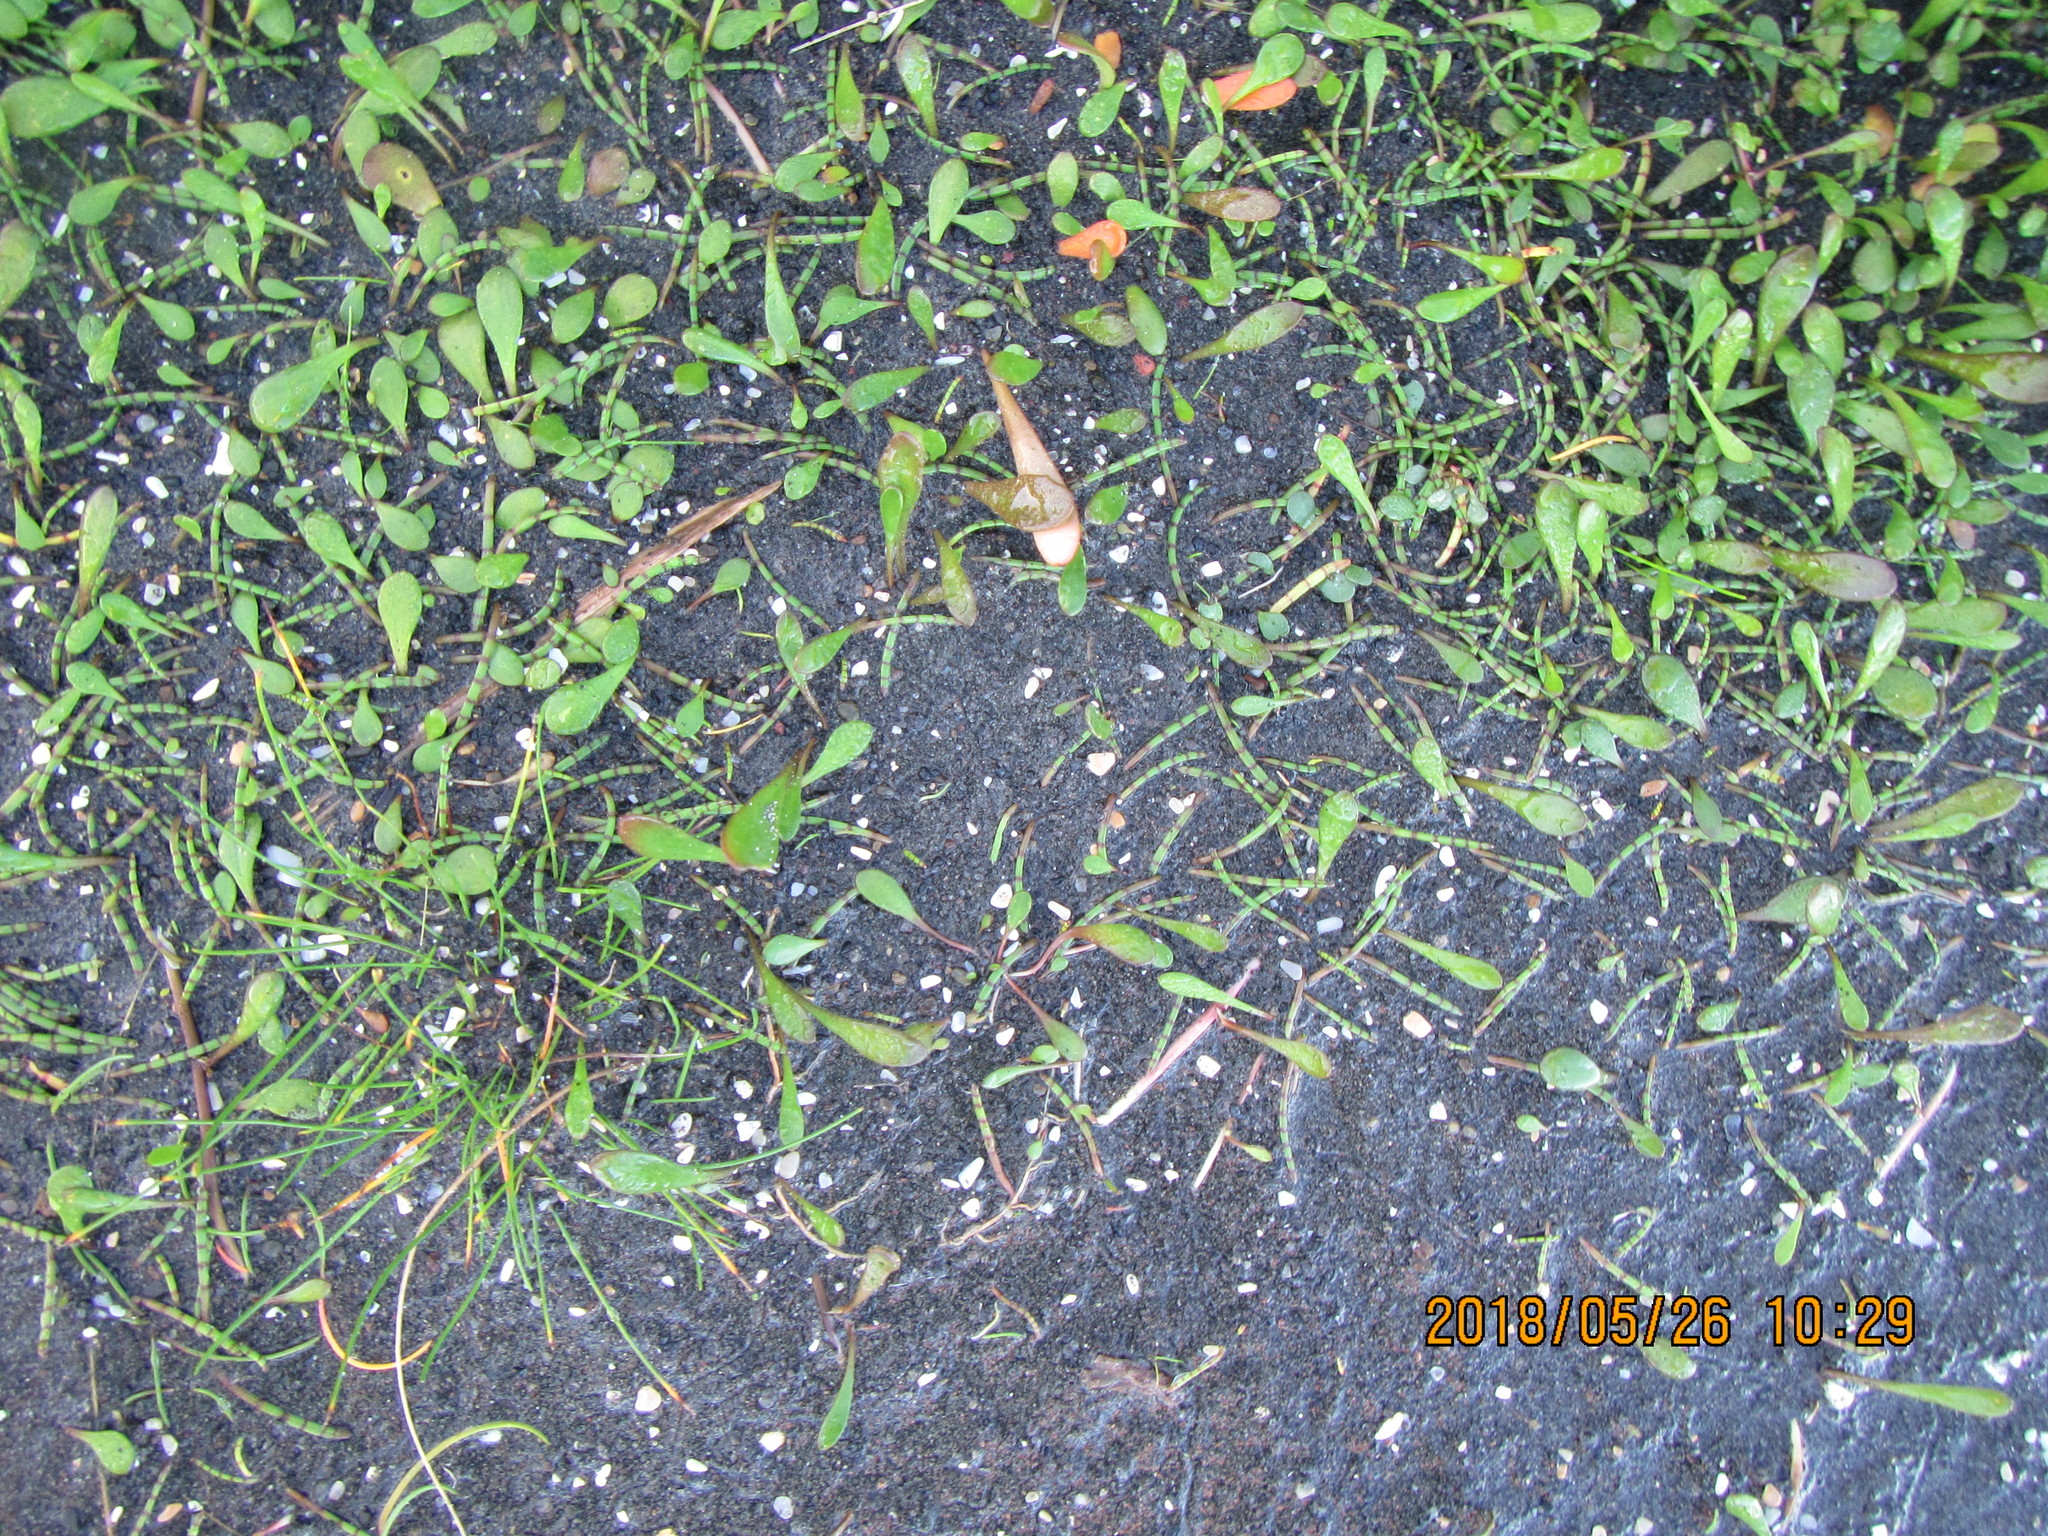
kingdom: Plantae
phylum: Tracheophyta
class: Magnoliopsida
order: Apiales
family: Apiaceae
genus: Lilaeopsis
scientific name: Lilaeopsis novae-zelandiae
